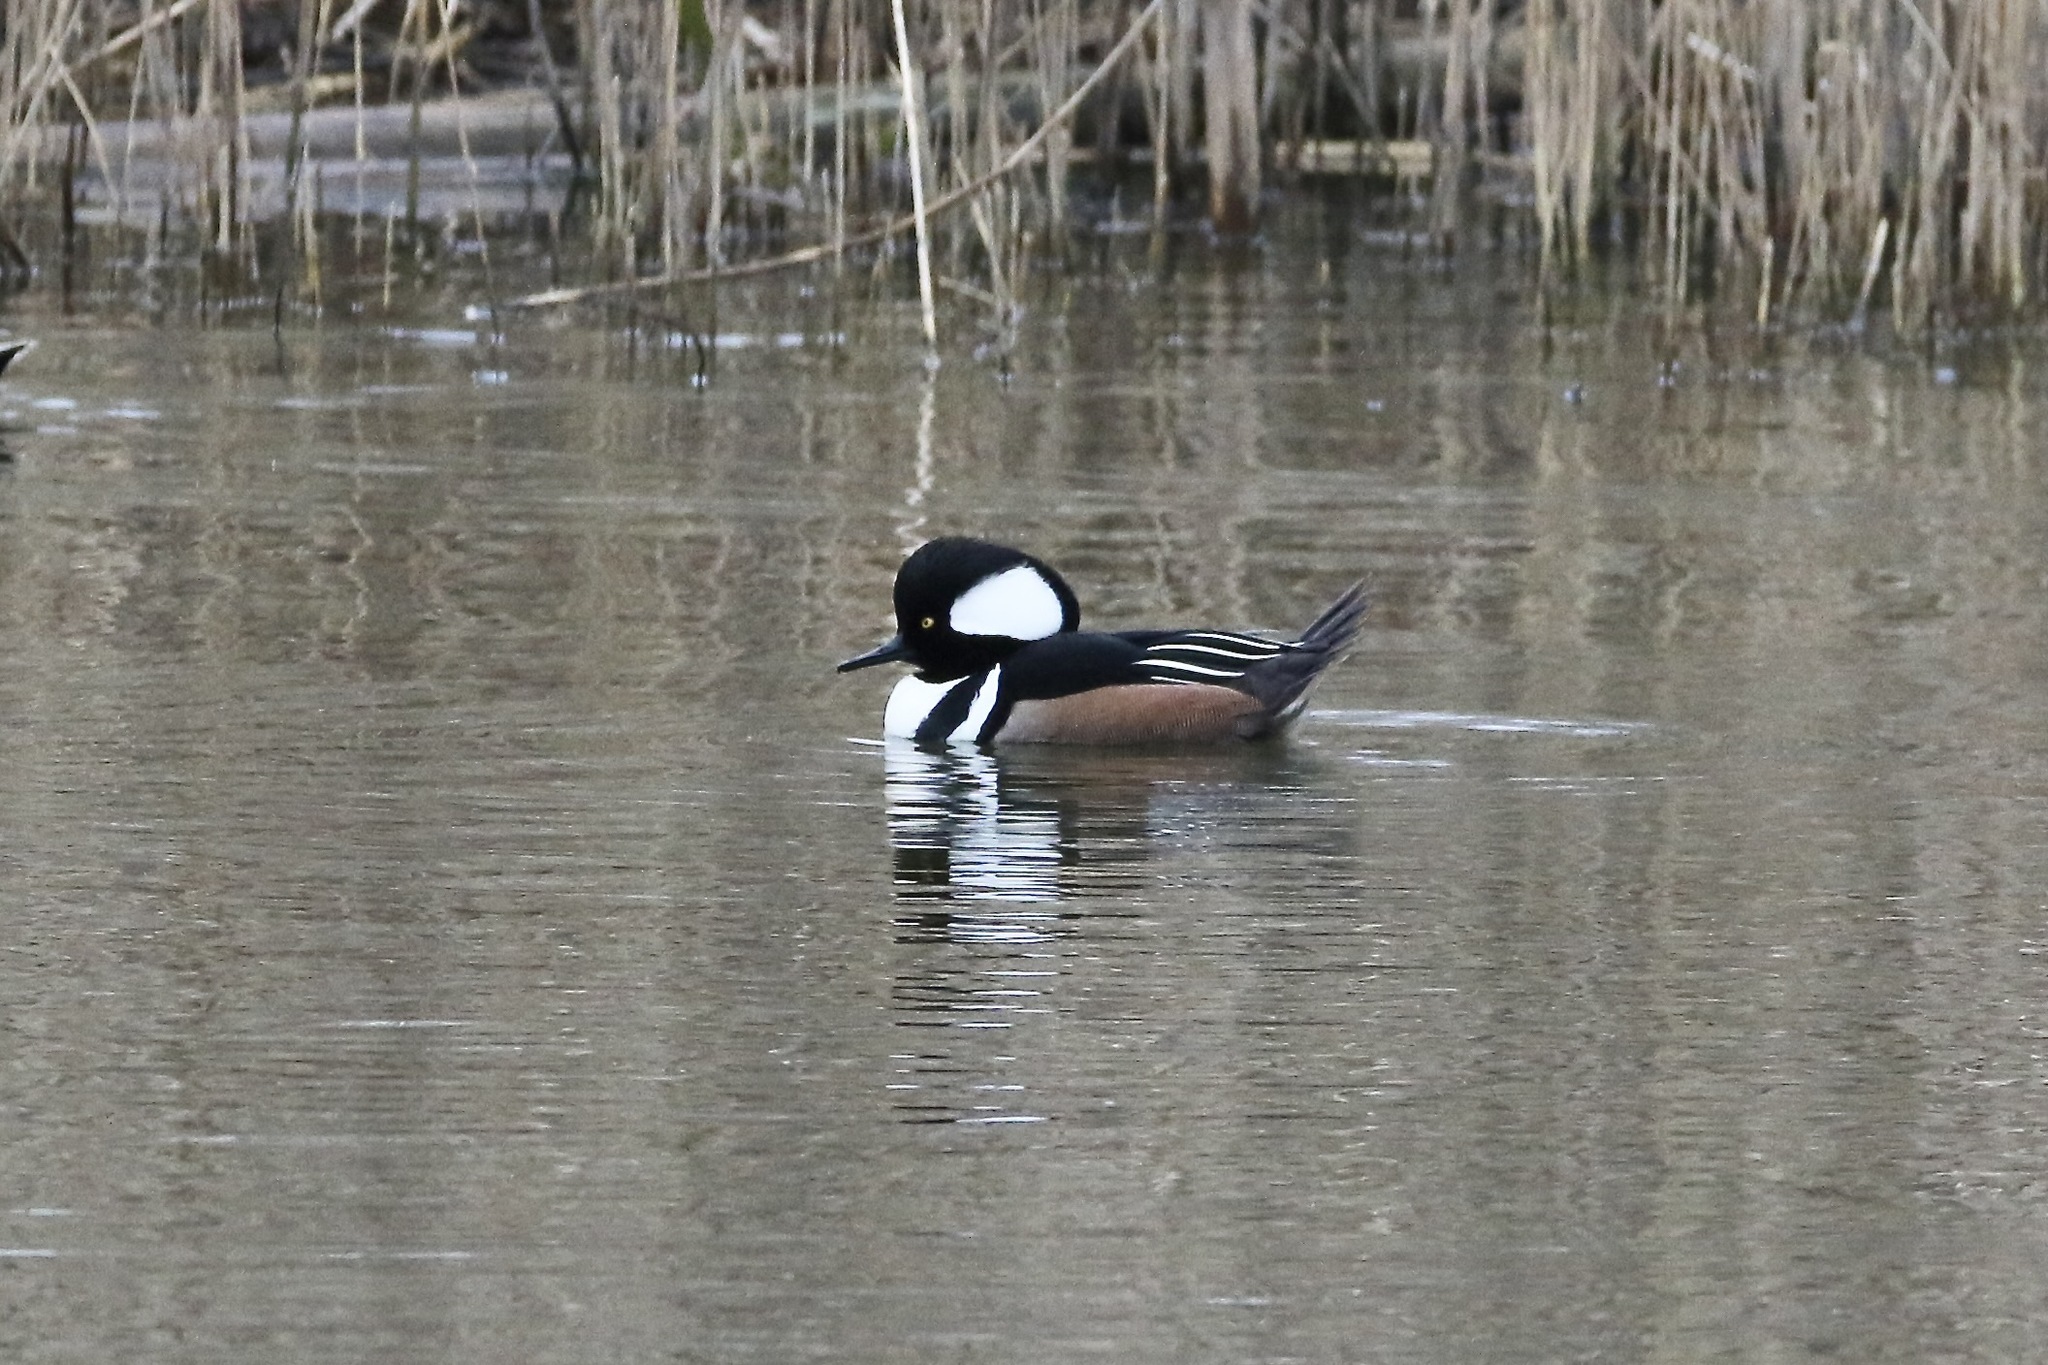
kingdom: Animalia
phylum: Chordata
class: Aves
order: Anseriformes
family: Anatidae
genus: Lophodytes
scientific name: Lophodytes cucullatus
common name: Hooded merganser
